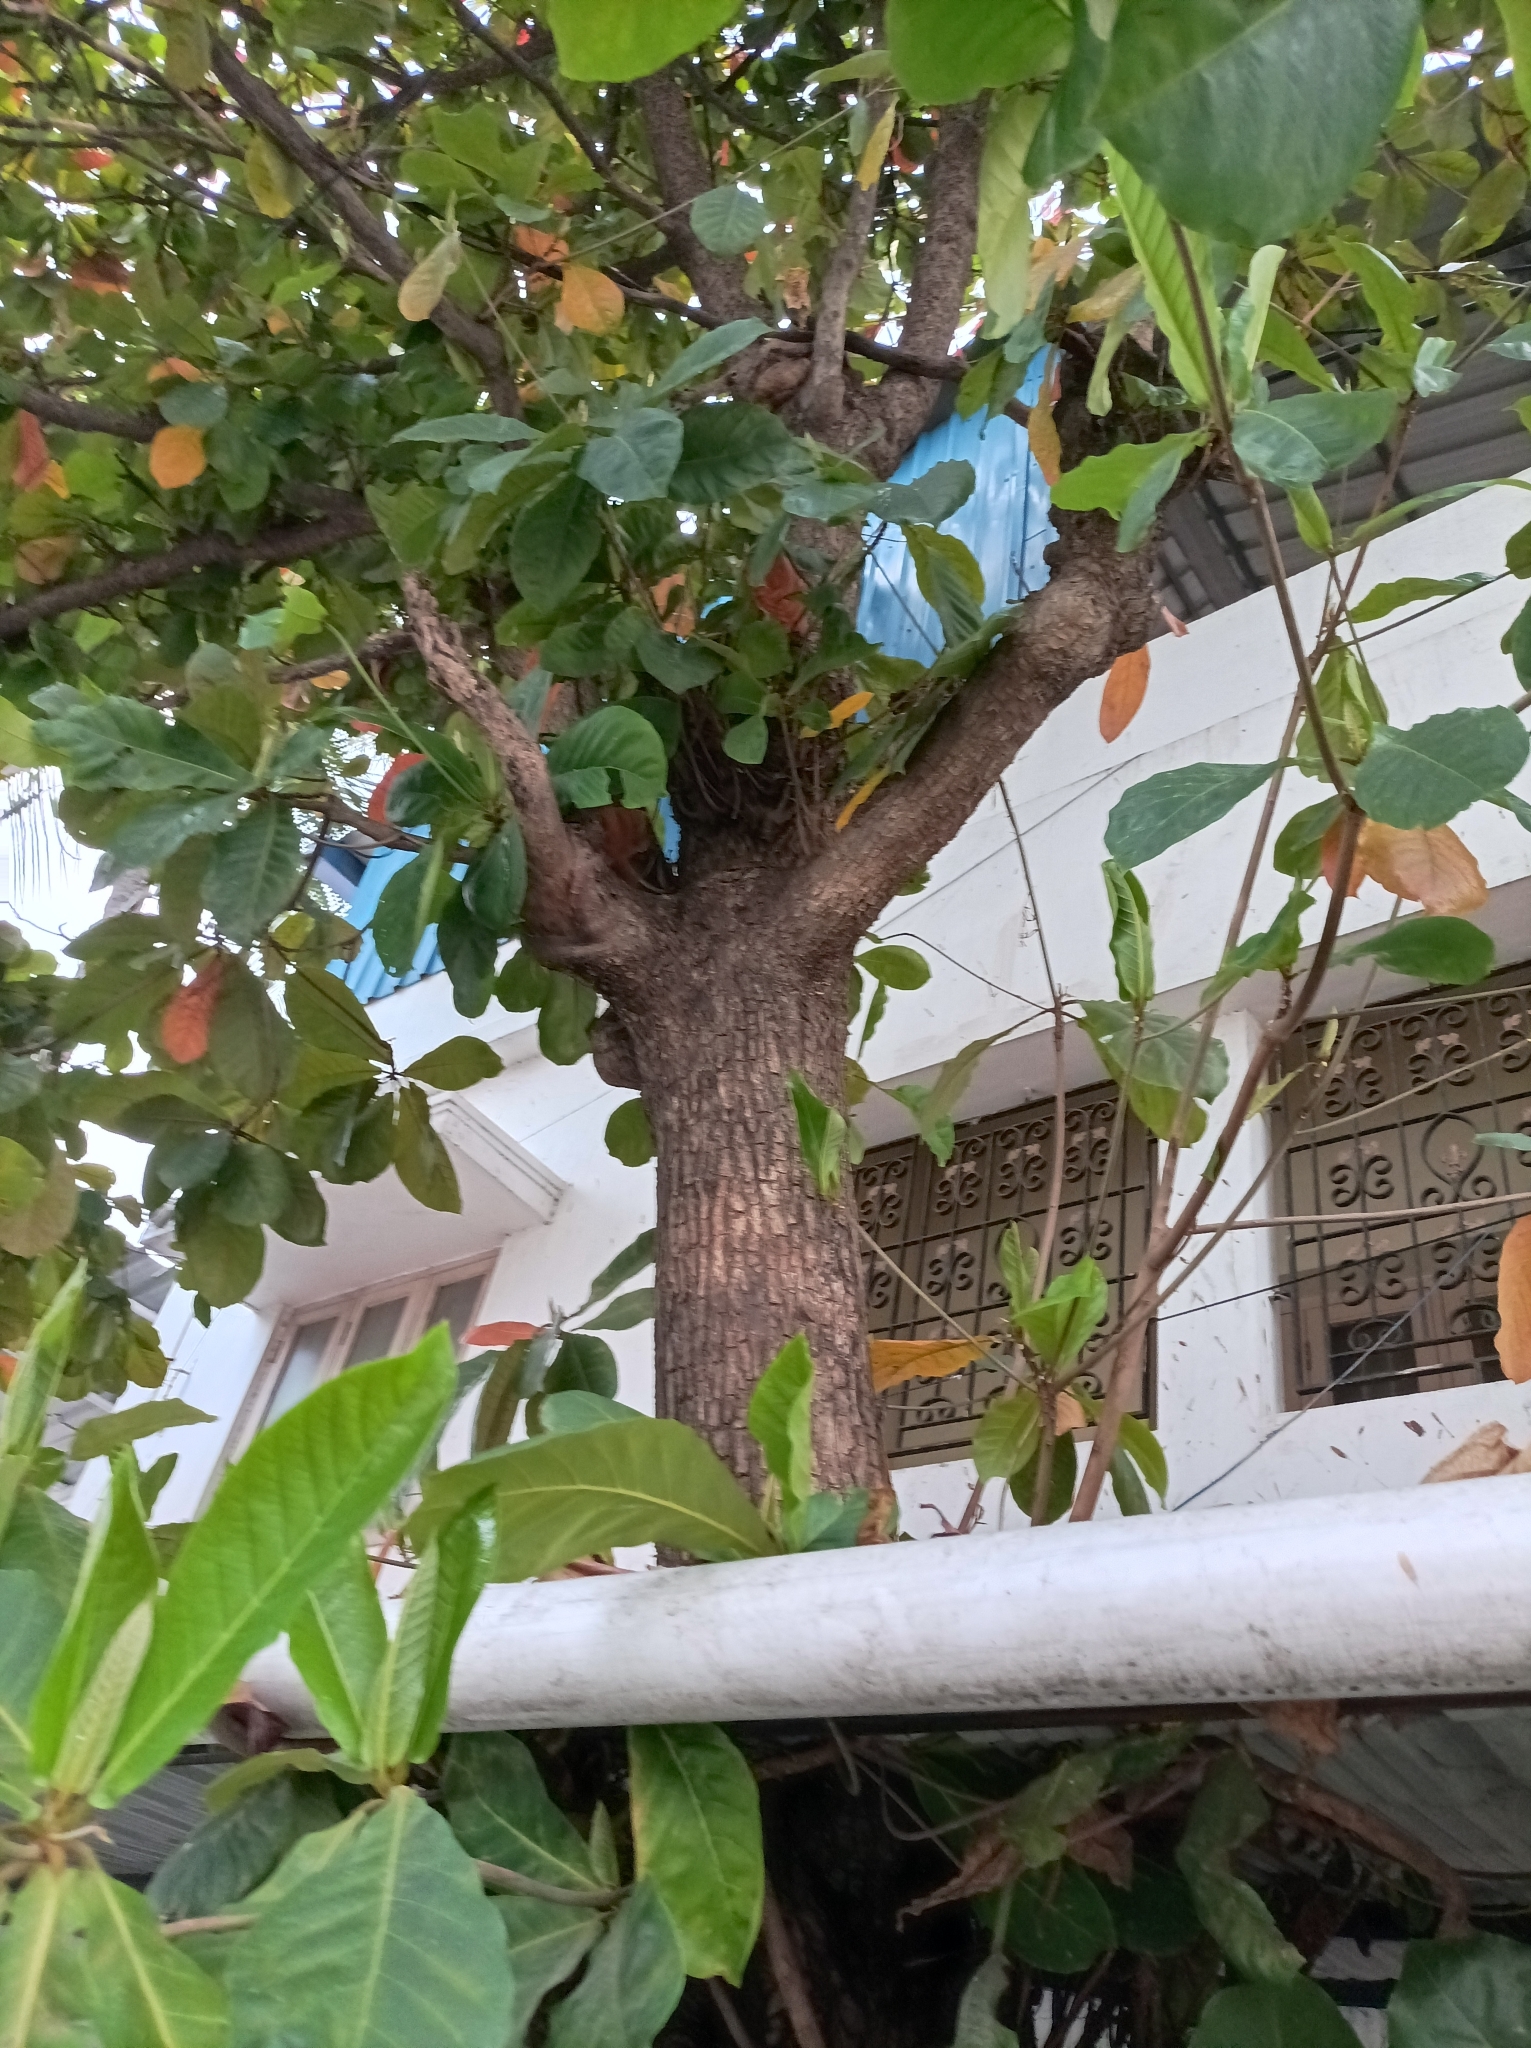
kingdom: Plantae
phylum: Tracheophyta
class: Magnoliopsida
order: Myrtales
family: Combretaceae
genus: Terminalia
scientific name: Terminalia catappa
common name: Tropical almond
